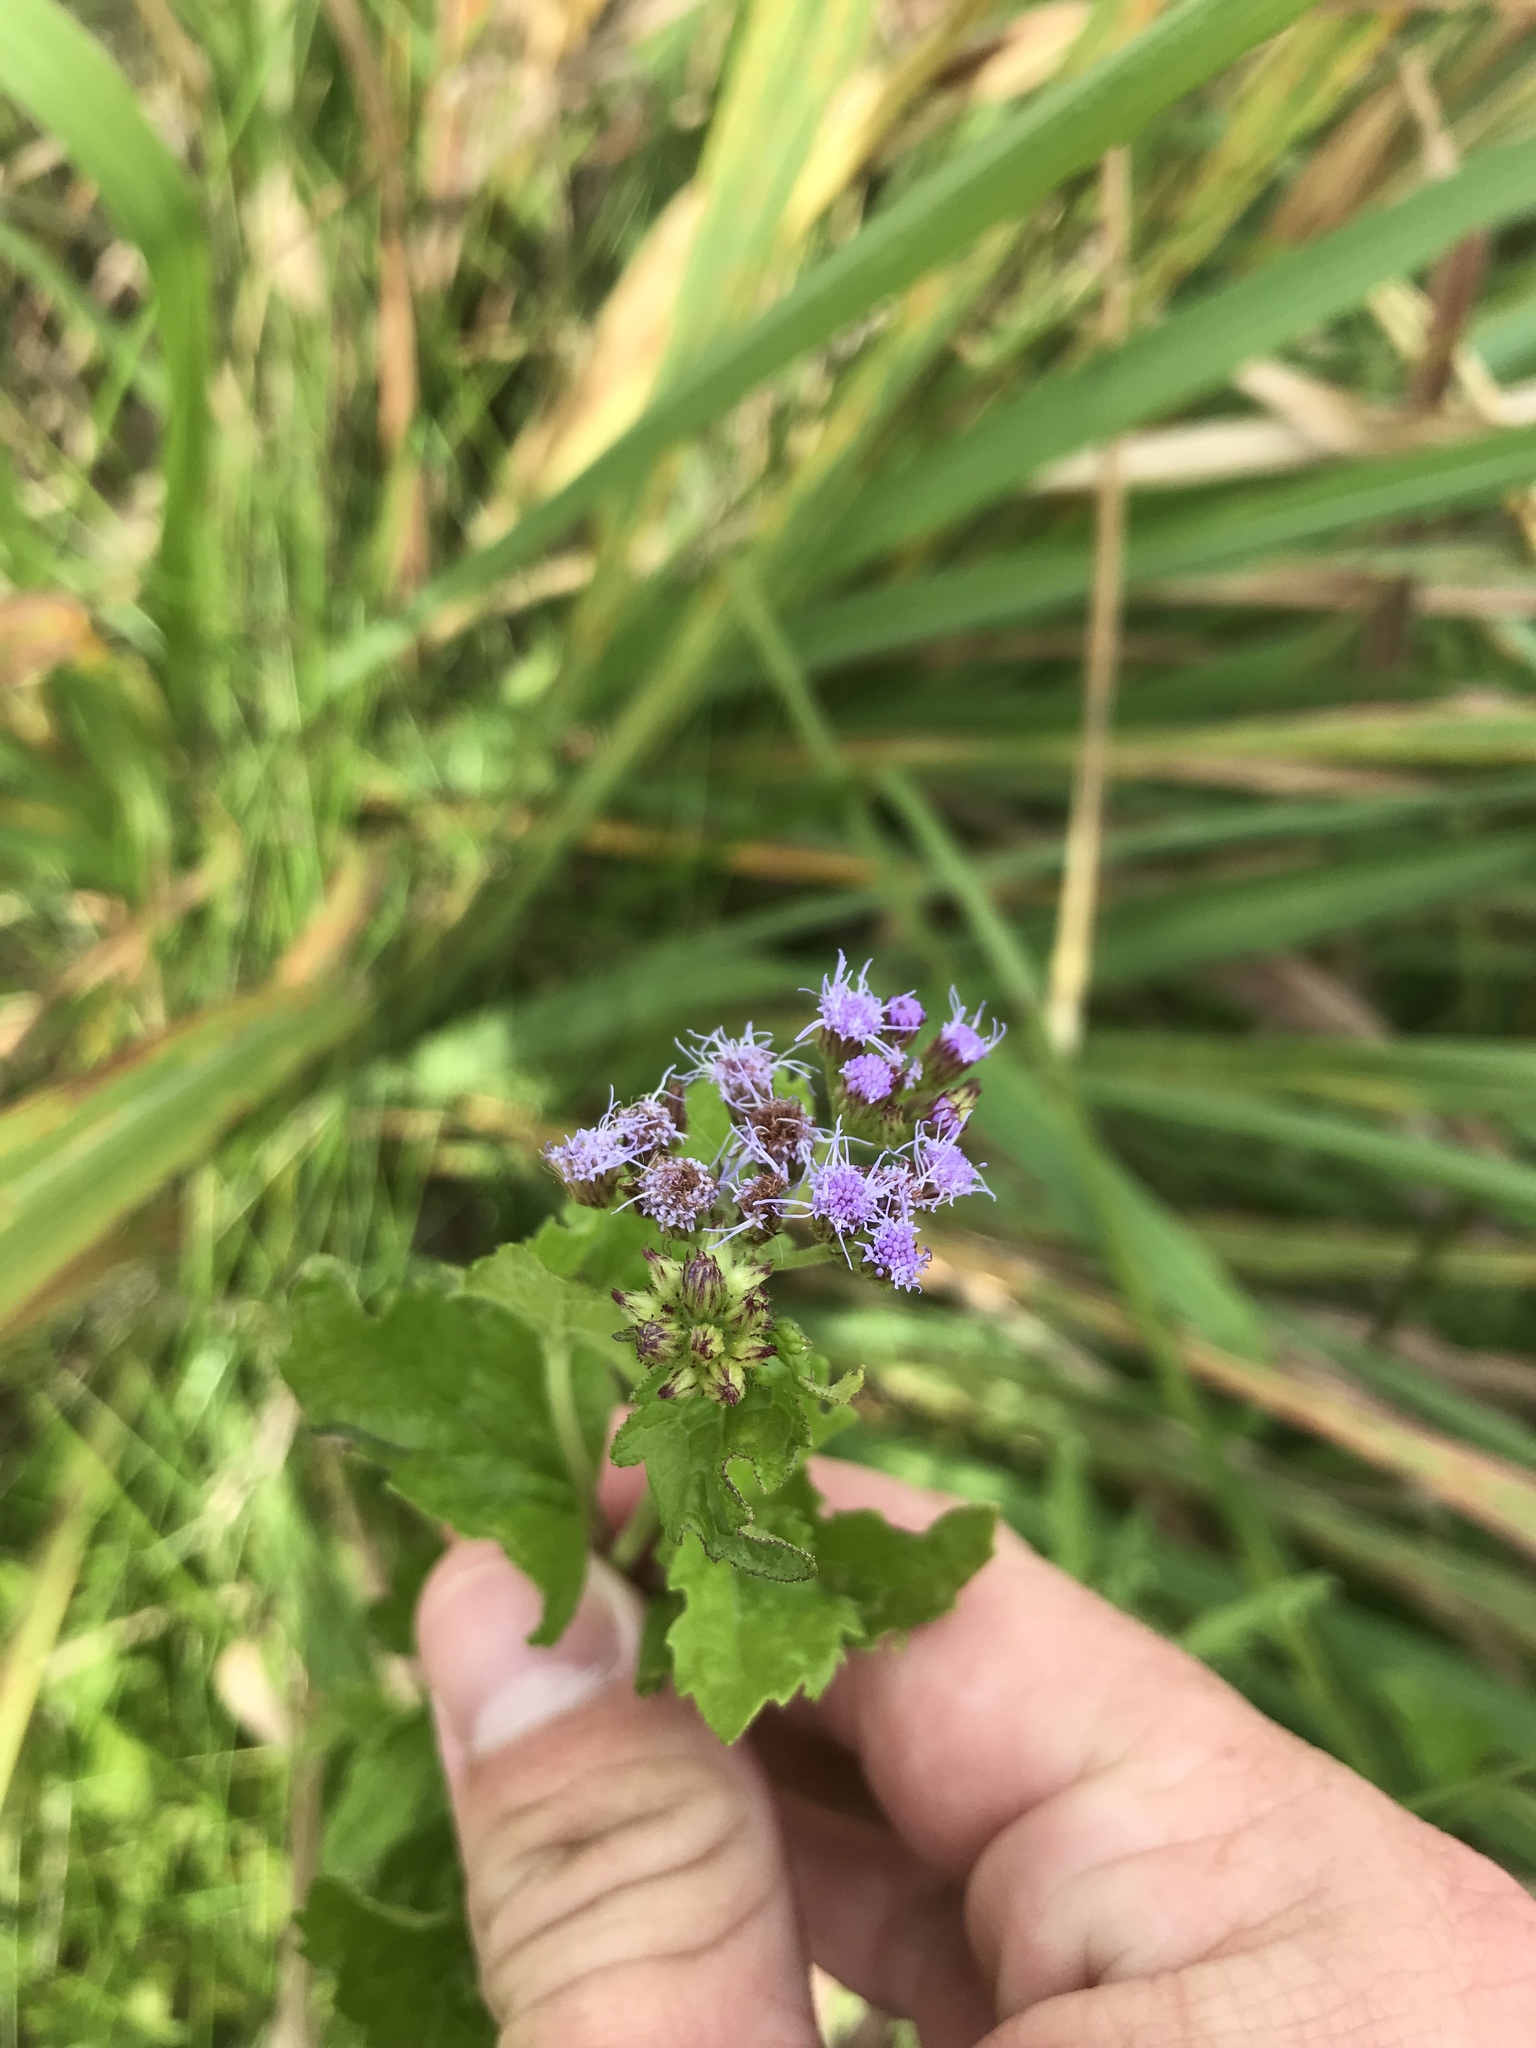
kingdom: Plantae
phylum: Tracheophyta
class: Magnoliopsida
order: Asterales
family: Asteraceae
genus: Conoclinium
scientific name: Conoclinium coelestinum
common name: Blue mistflower
